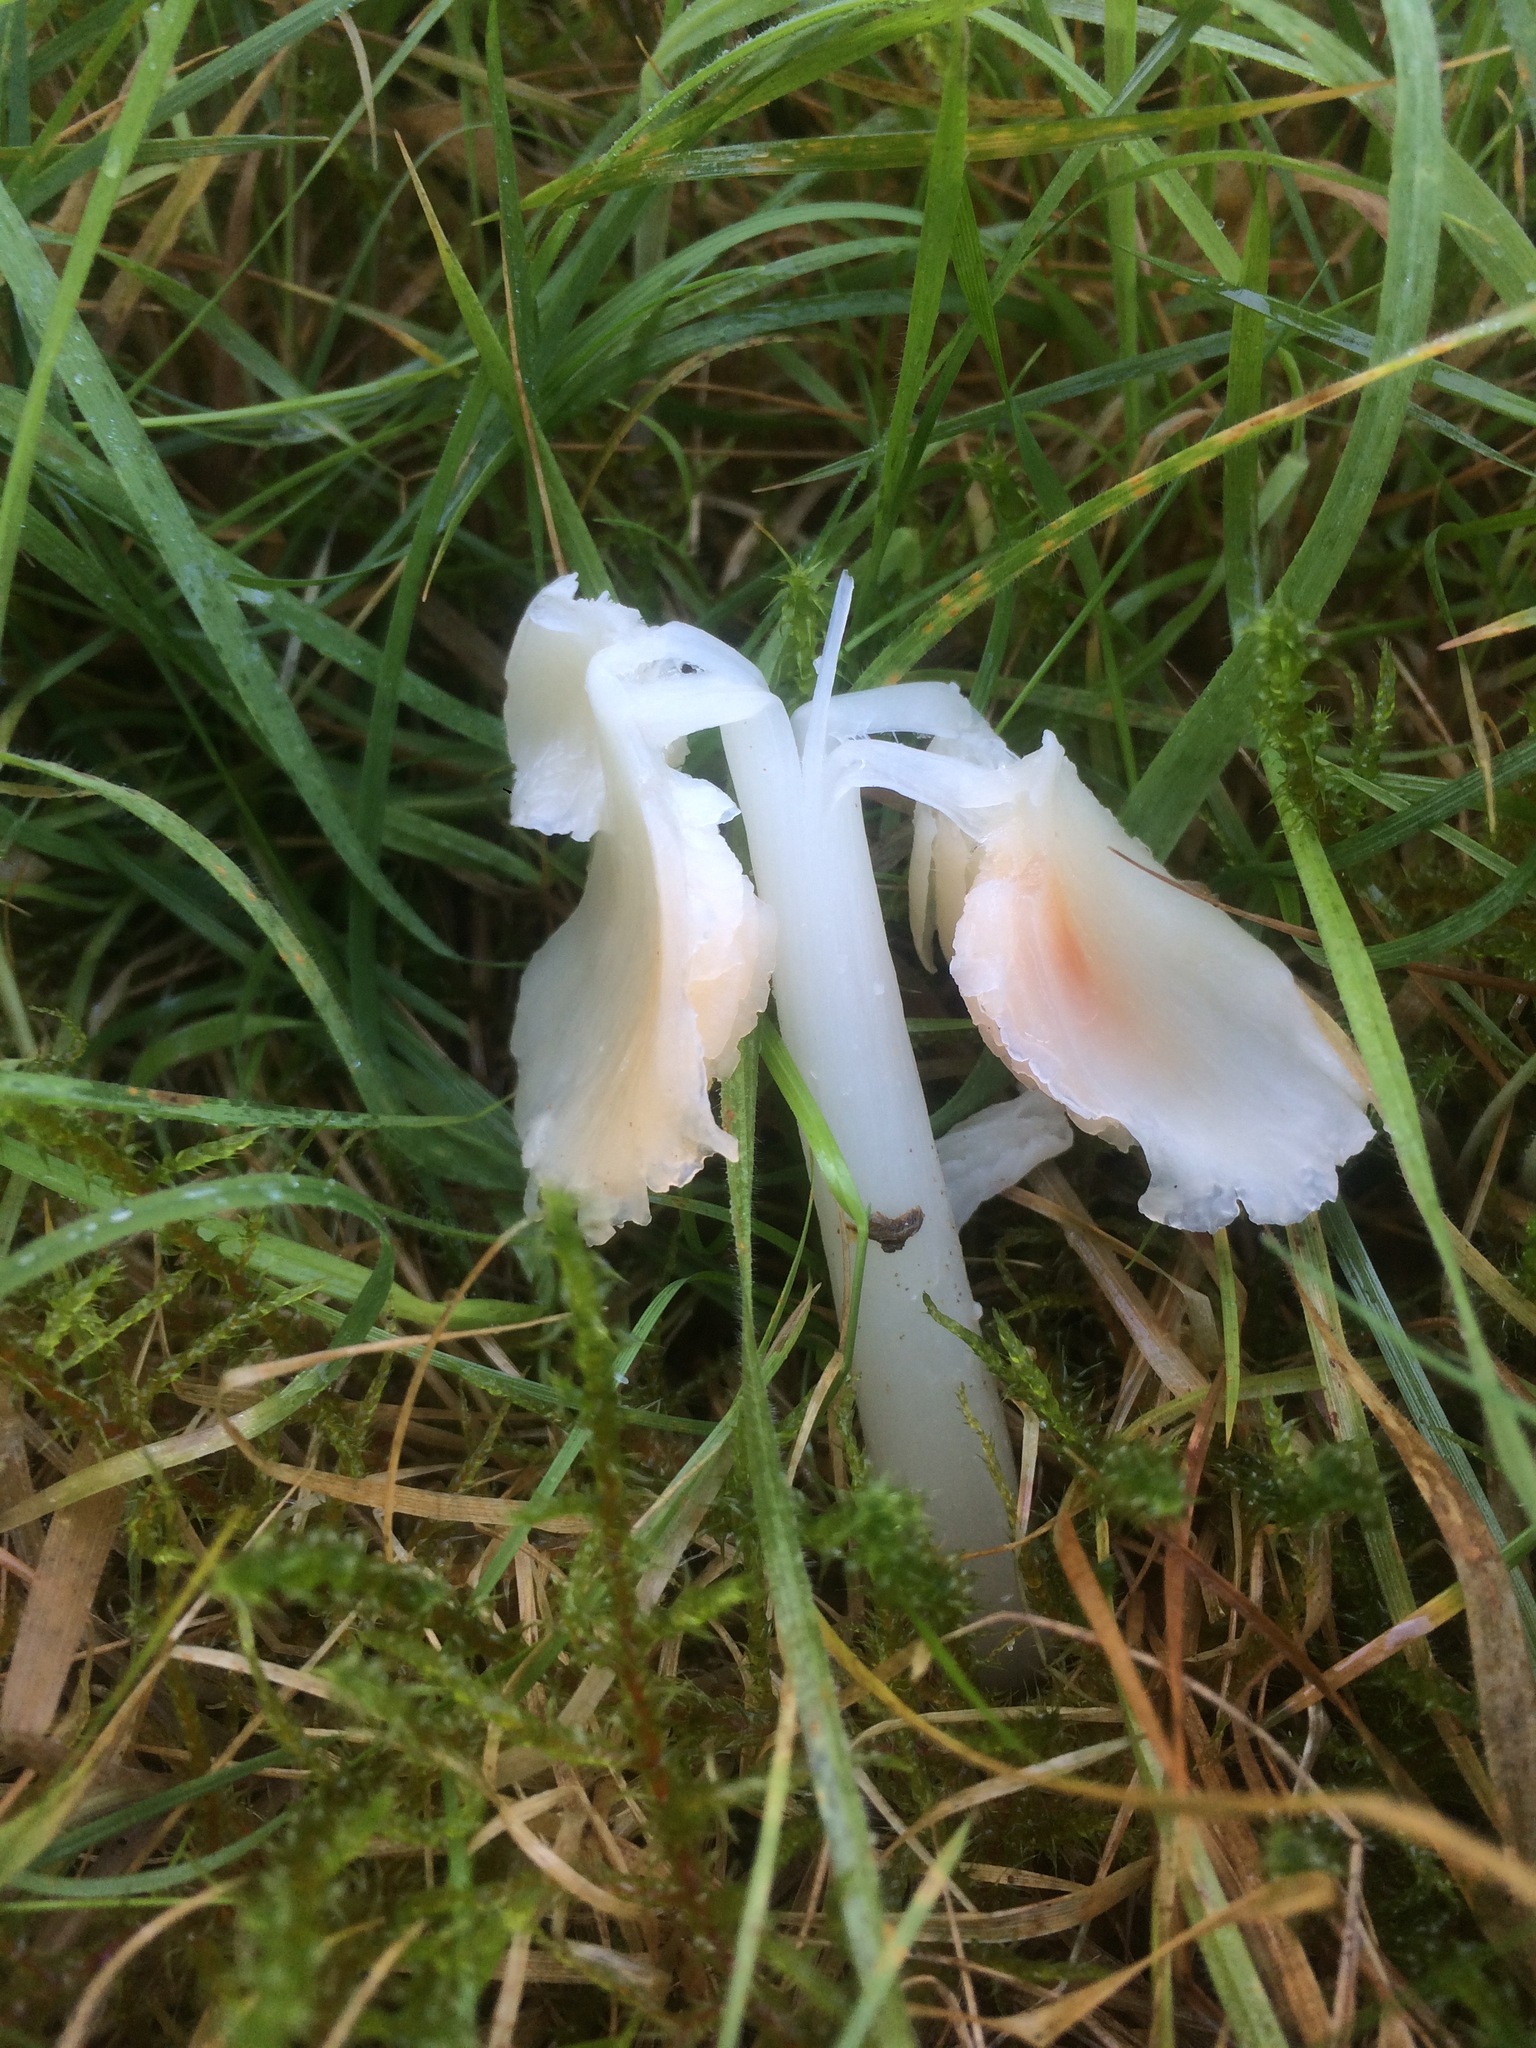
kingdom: Fungi
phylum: Basidiomycota
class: Agaricomycetes
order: Agaricales
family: Hygrophoraceae
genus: Porpolomopsis
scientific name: Porpolomopsis calyptriformis
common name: Pink waxcap
